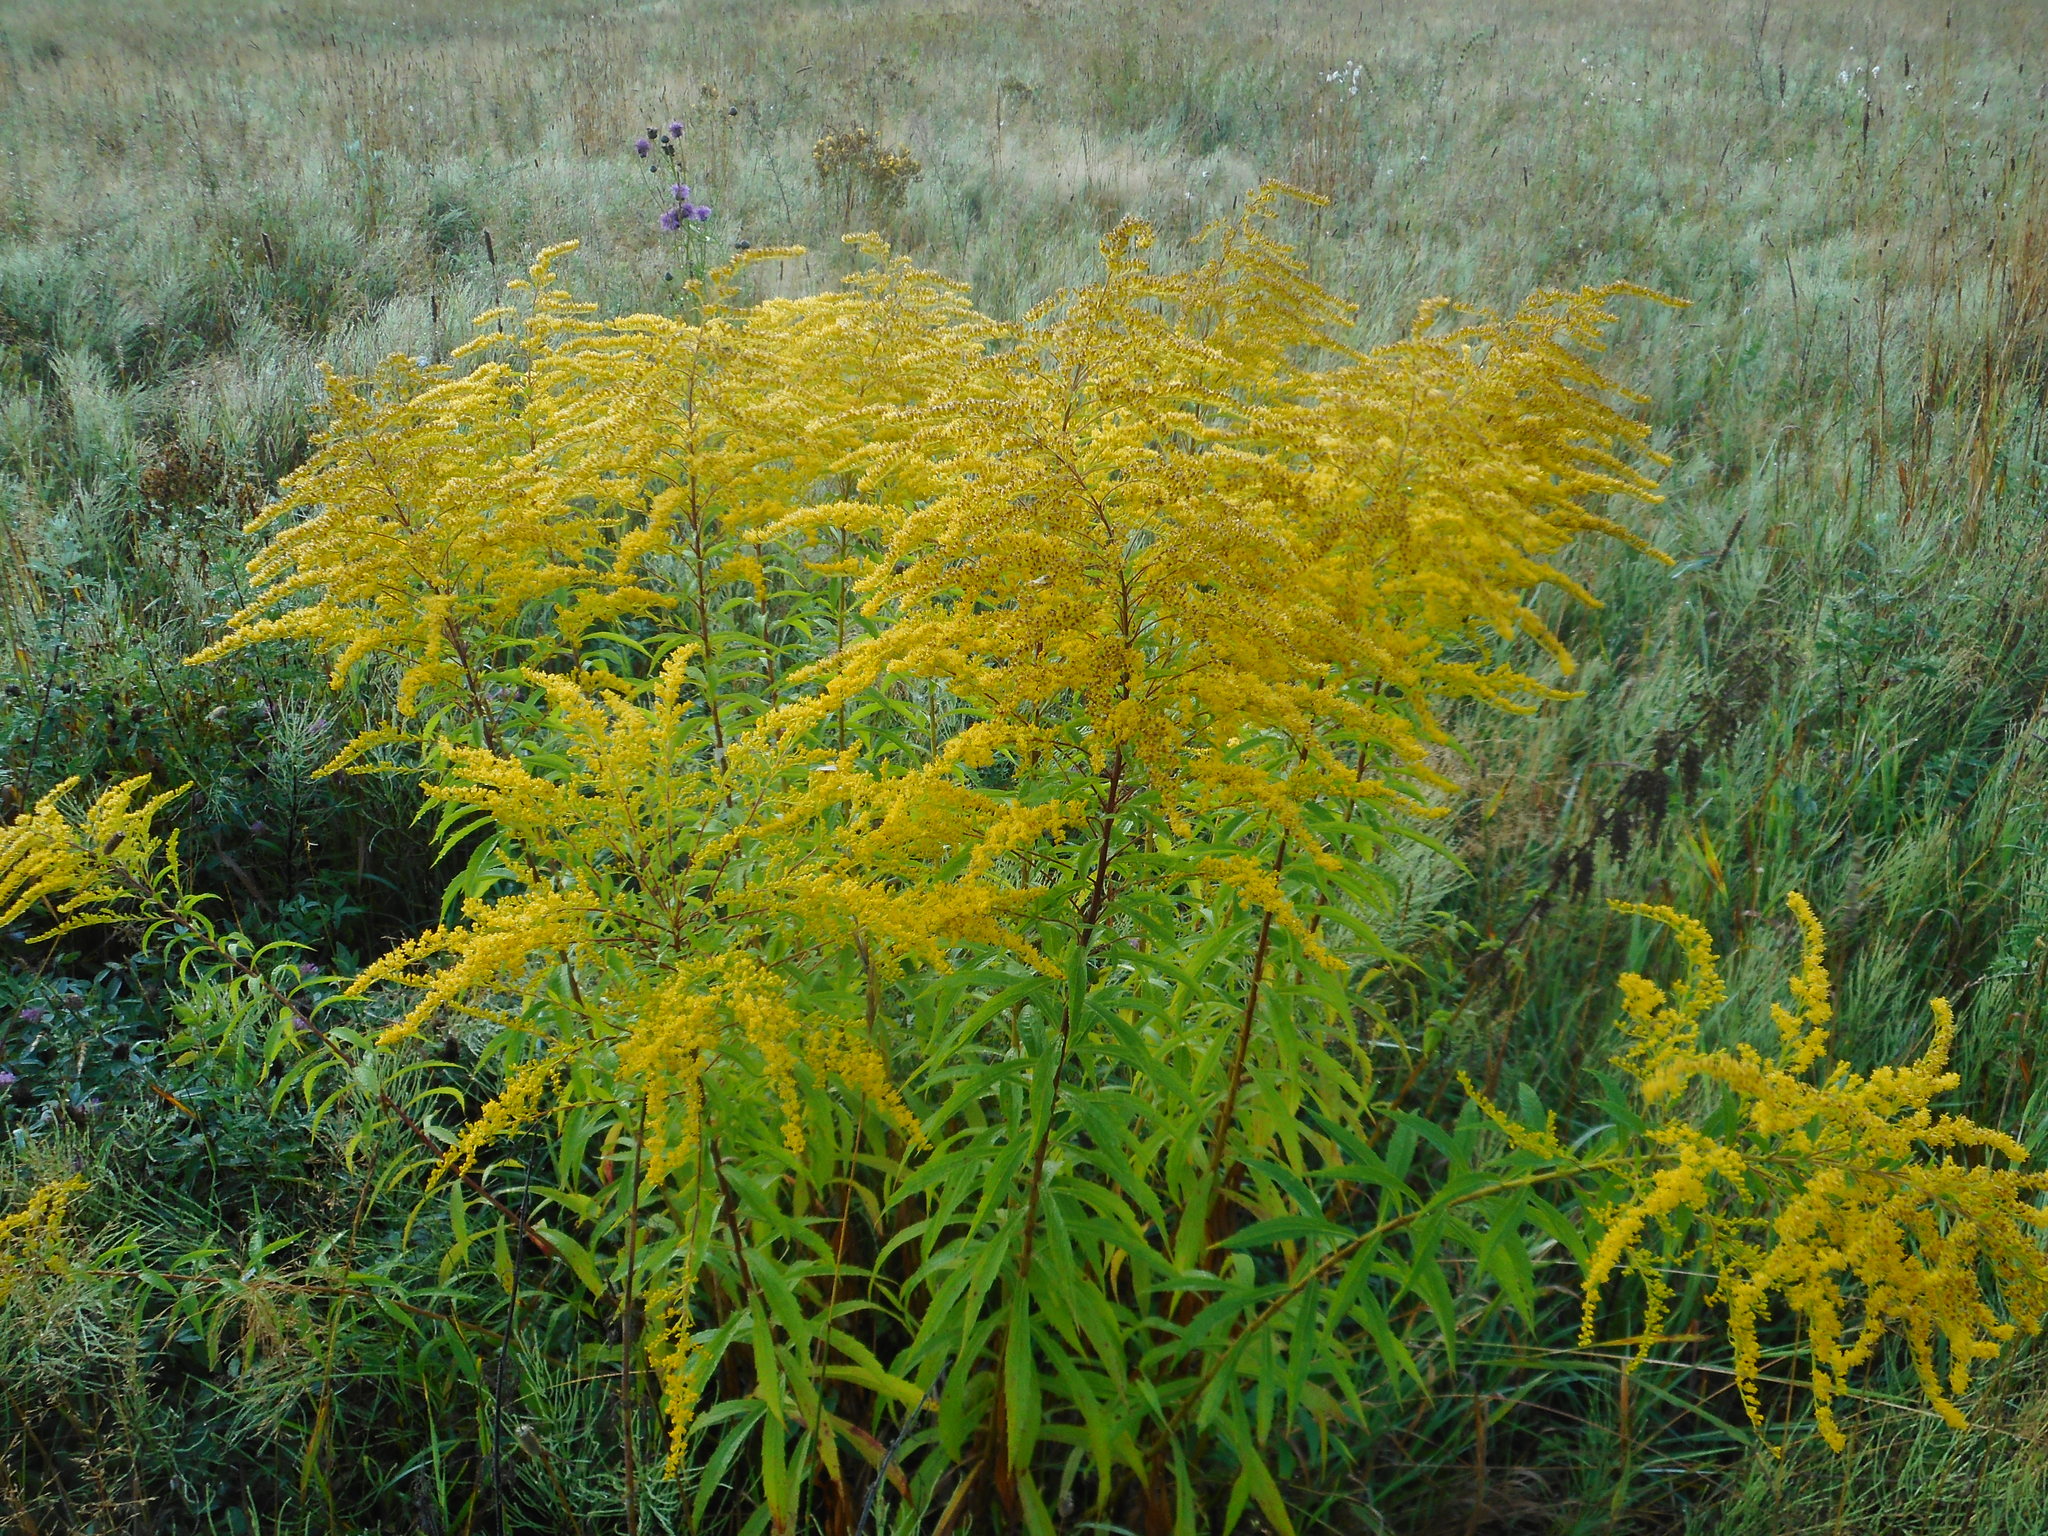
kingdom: Plantae
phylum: Tracheophyta
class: Magnoliopsida
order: Asterales
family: Asteraceae
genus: Solidago
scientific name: Solidago canadensis
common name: Canada goldenrod
